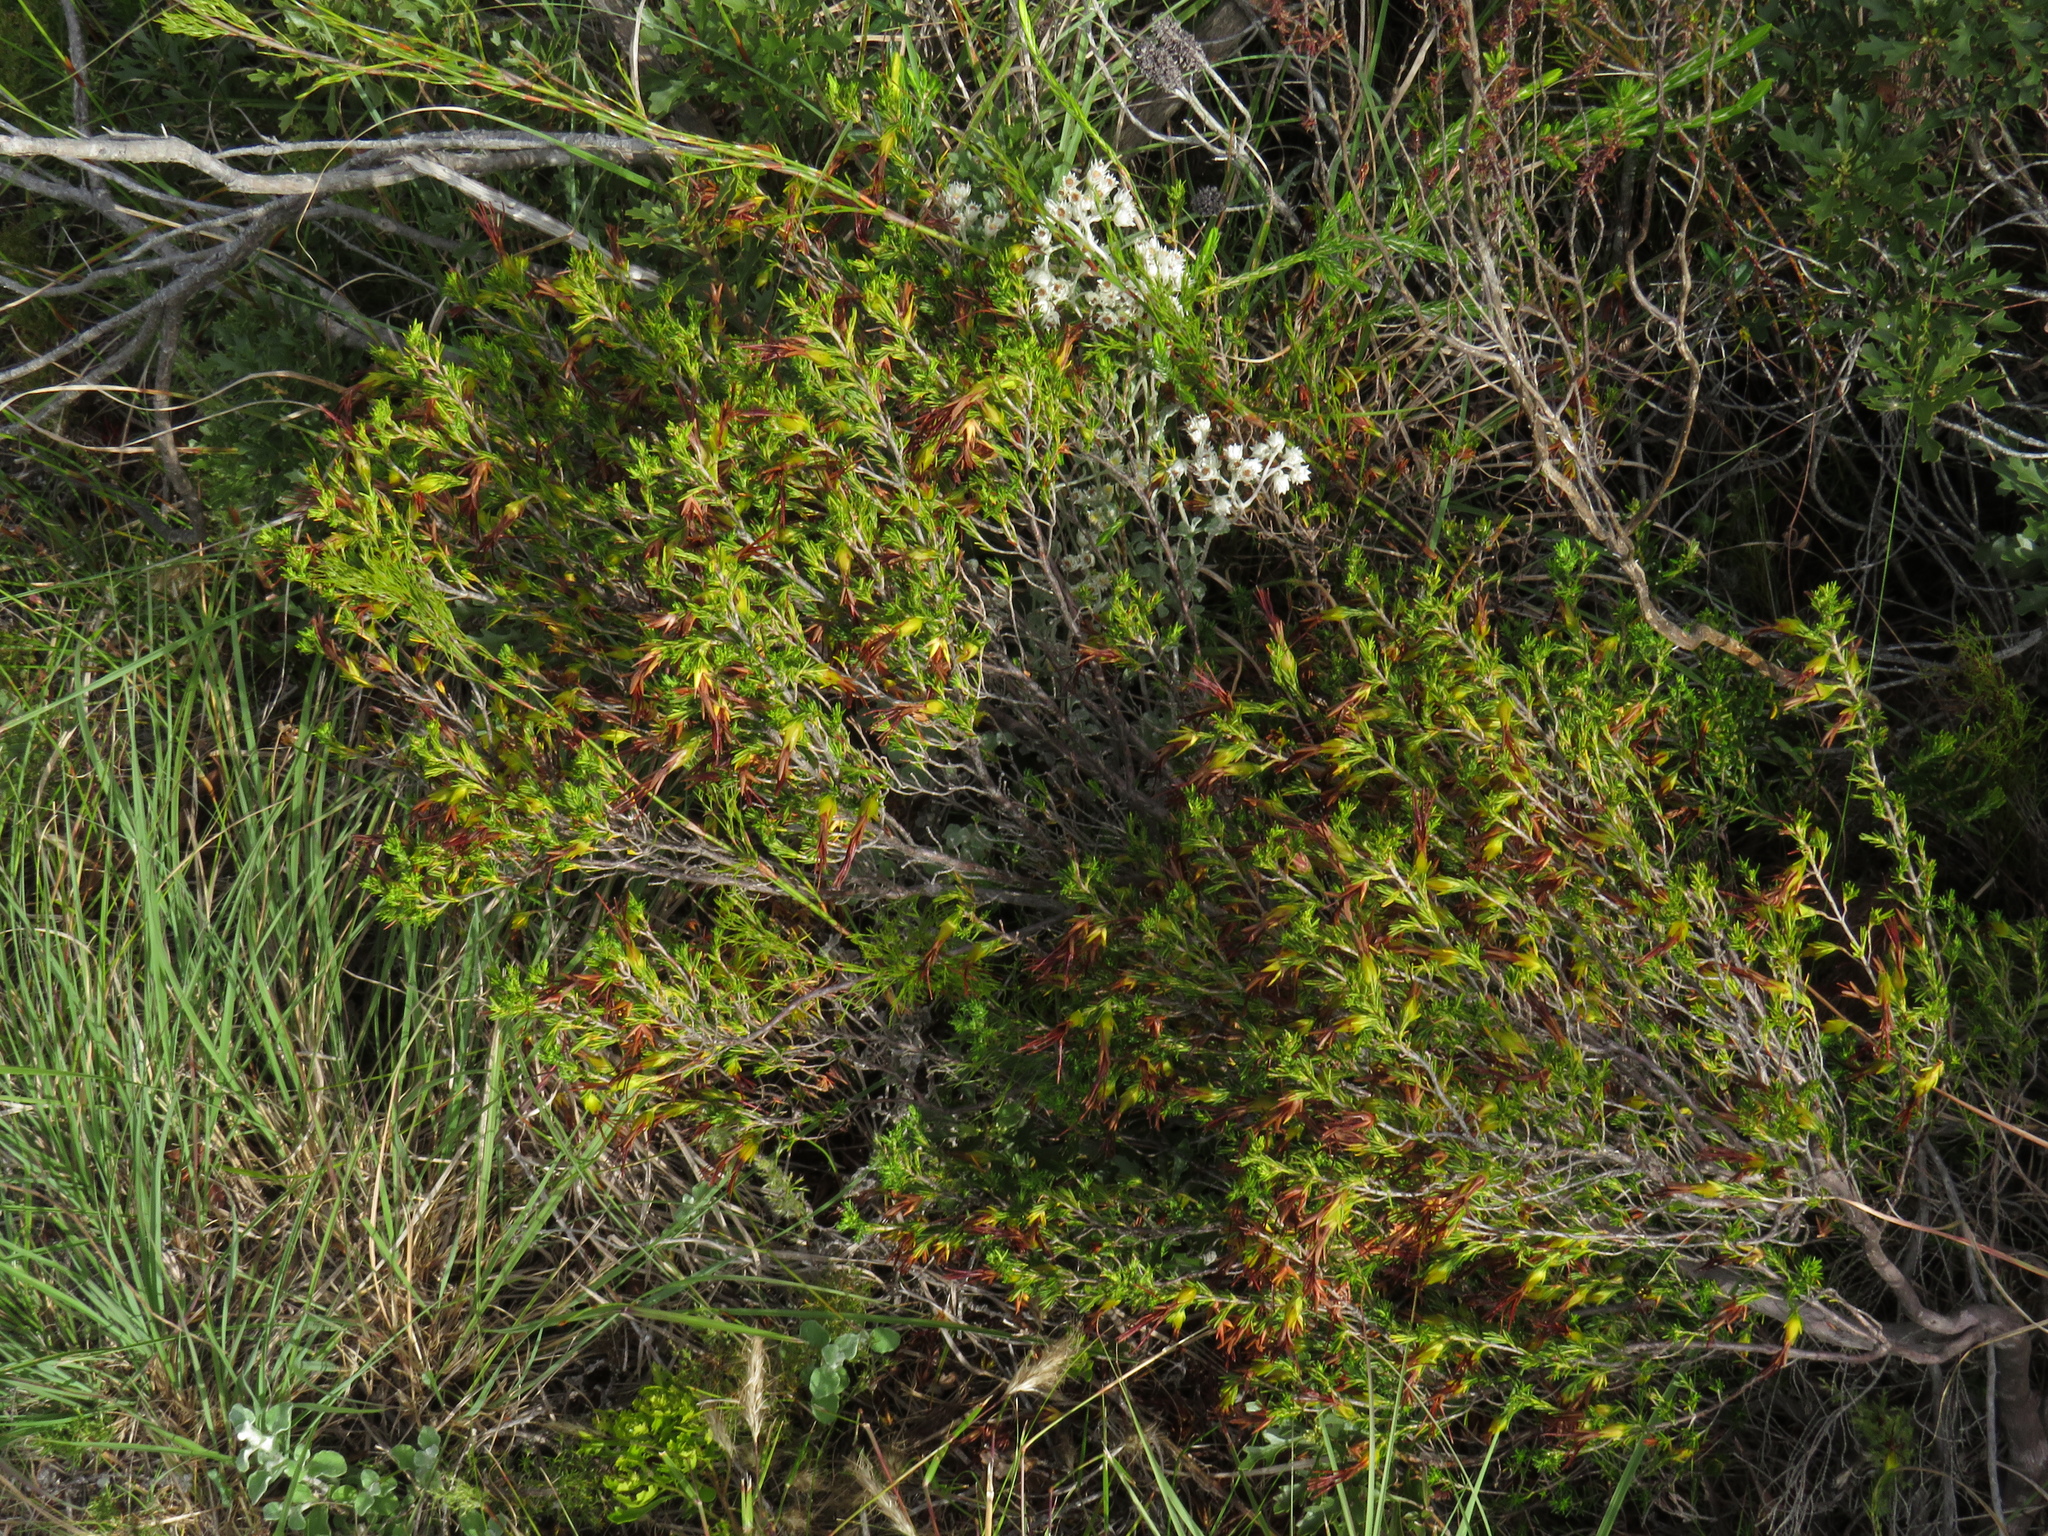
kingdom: Plantae
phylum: Tracheophyta
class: Magnoliopsida
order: Ericales
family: Ericaceae
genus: Erica
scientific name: Erica melastoma
